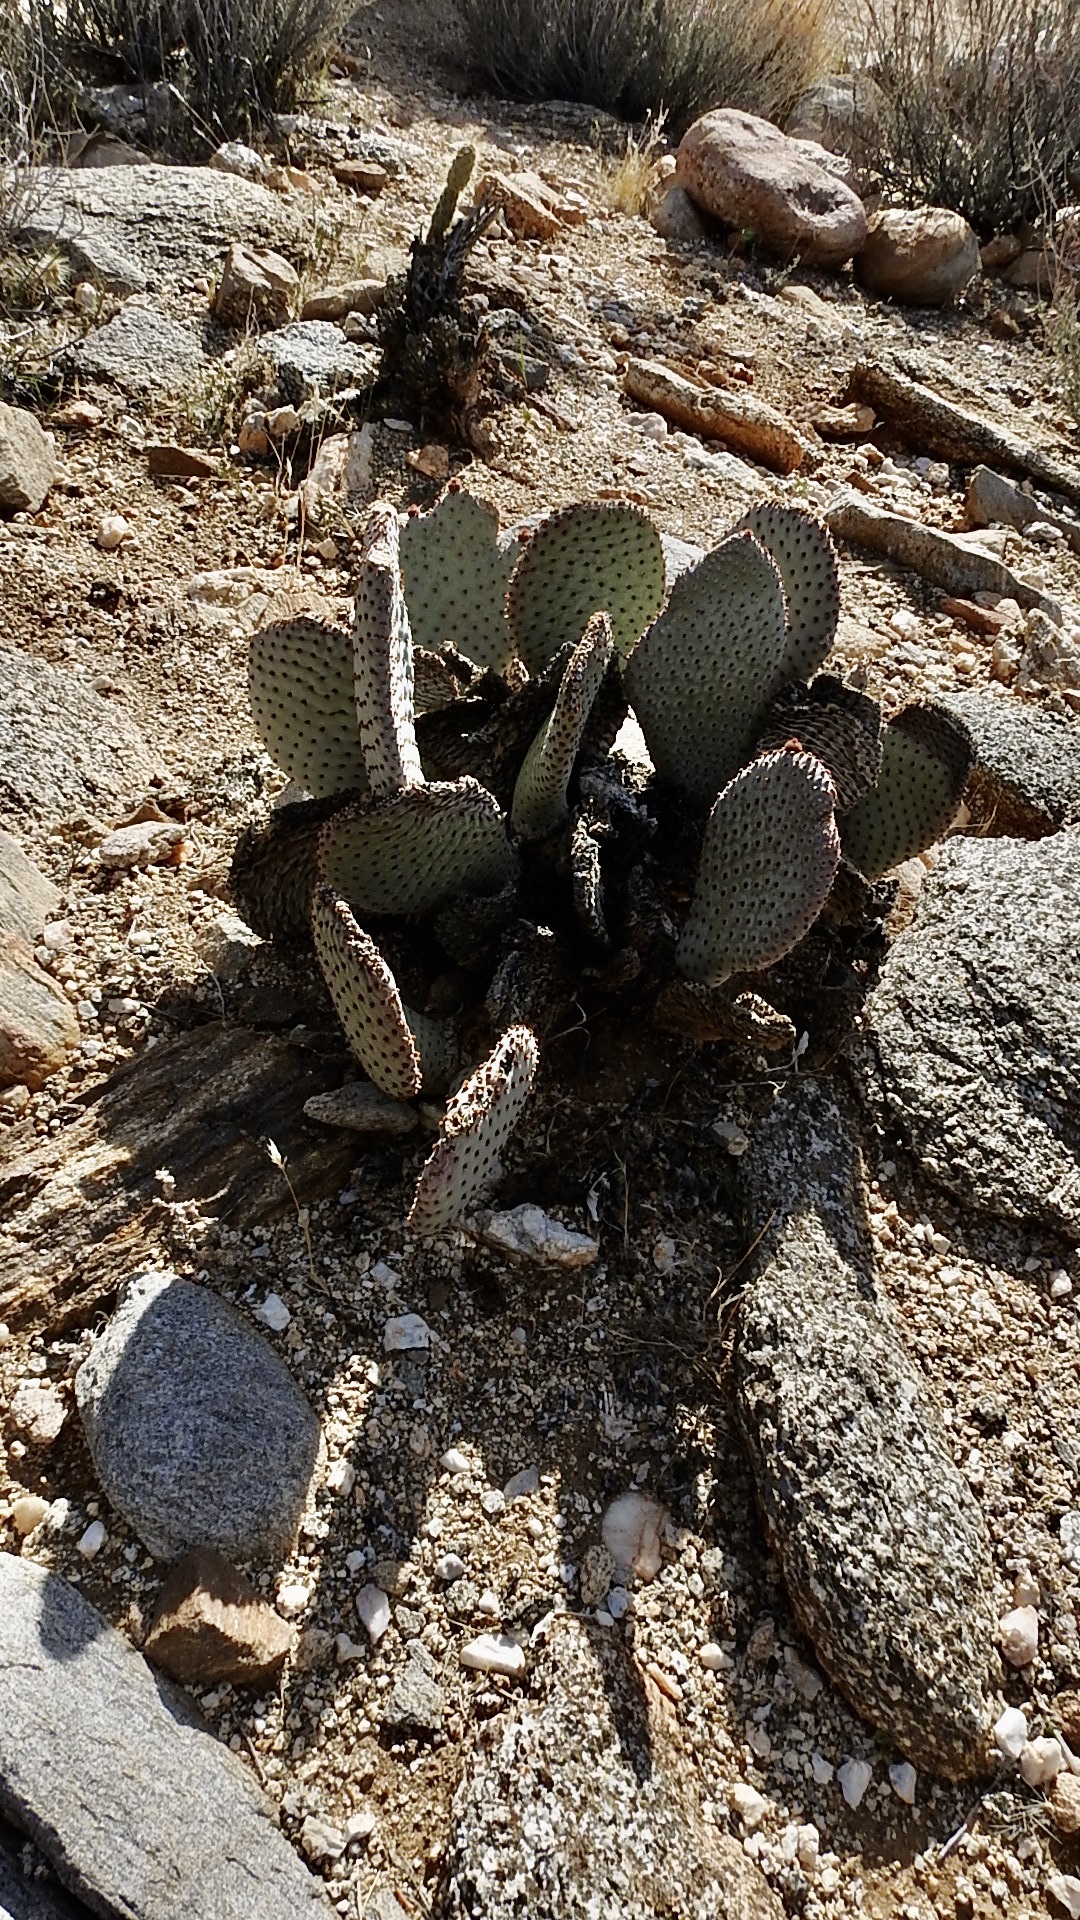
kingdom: Plantae
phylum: Tracheophyta
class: Magnoliopsida
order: Caryophyllales
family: Cactaceae
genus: Opuntia
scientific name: Opuntia basilaris
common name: Beavertail prickly-pear
